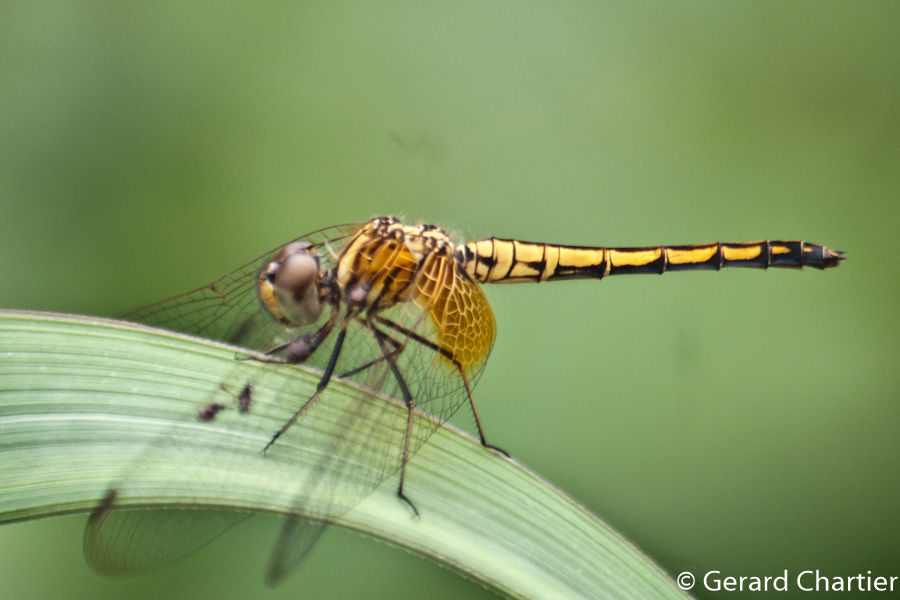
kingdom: Animalia
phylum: Arthropoda
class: Insecta
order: Odonata
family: Libellulidae
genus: Trithemis
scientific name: Trithemis aurora
